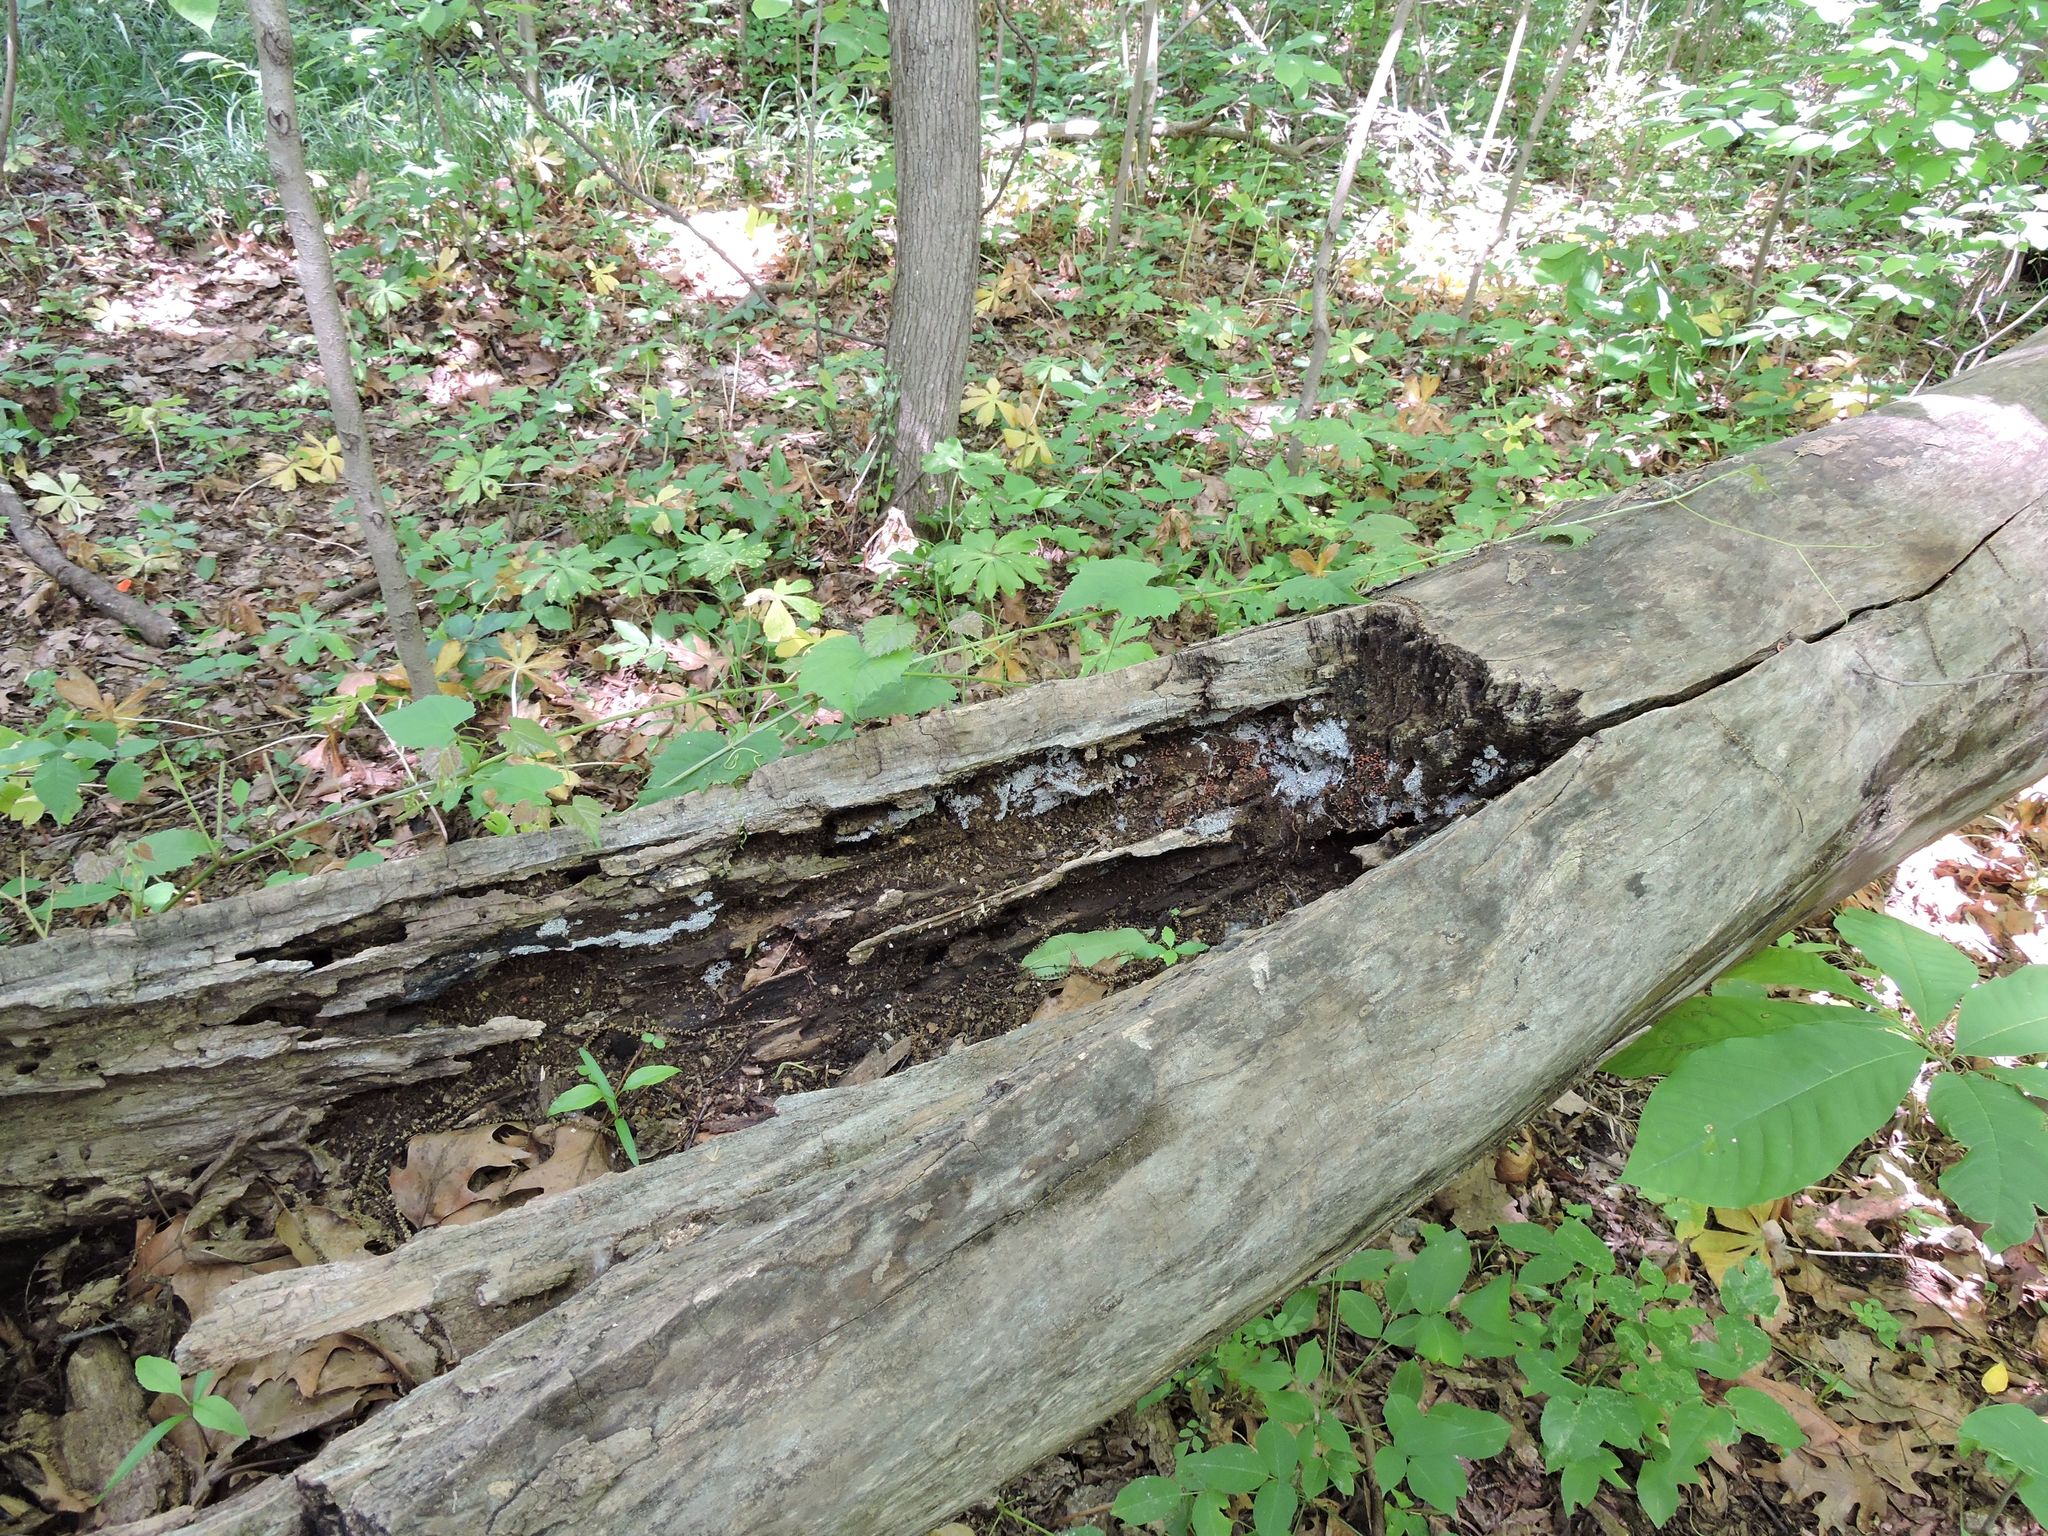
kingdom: Protozoa
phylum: Mycetozoa
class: Myxomycetes
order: Trichiales
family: Arcyriaceae
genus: Arcyria
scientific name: Arcyria denudata
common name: Carnival candy slime mold
